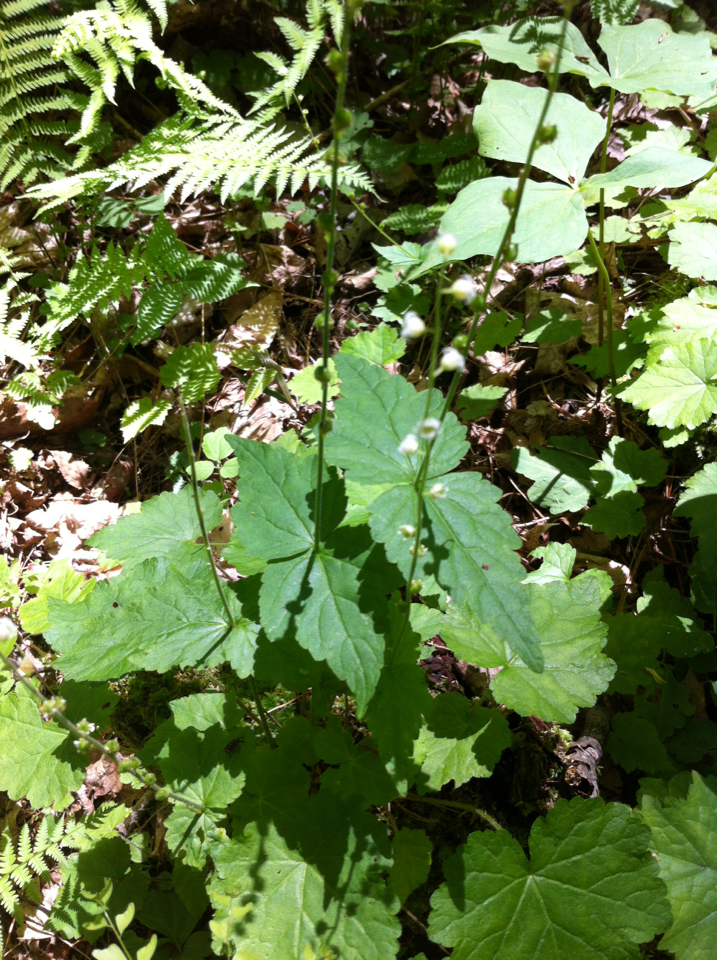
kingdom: Plantae
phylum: Tracheophyta
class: Magnoliopsida
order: Saxifragales
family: Saxifragaceae
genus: Mitella
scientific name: Mitella diphylla
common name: Coolwort
